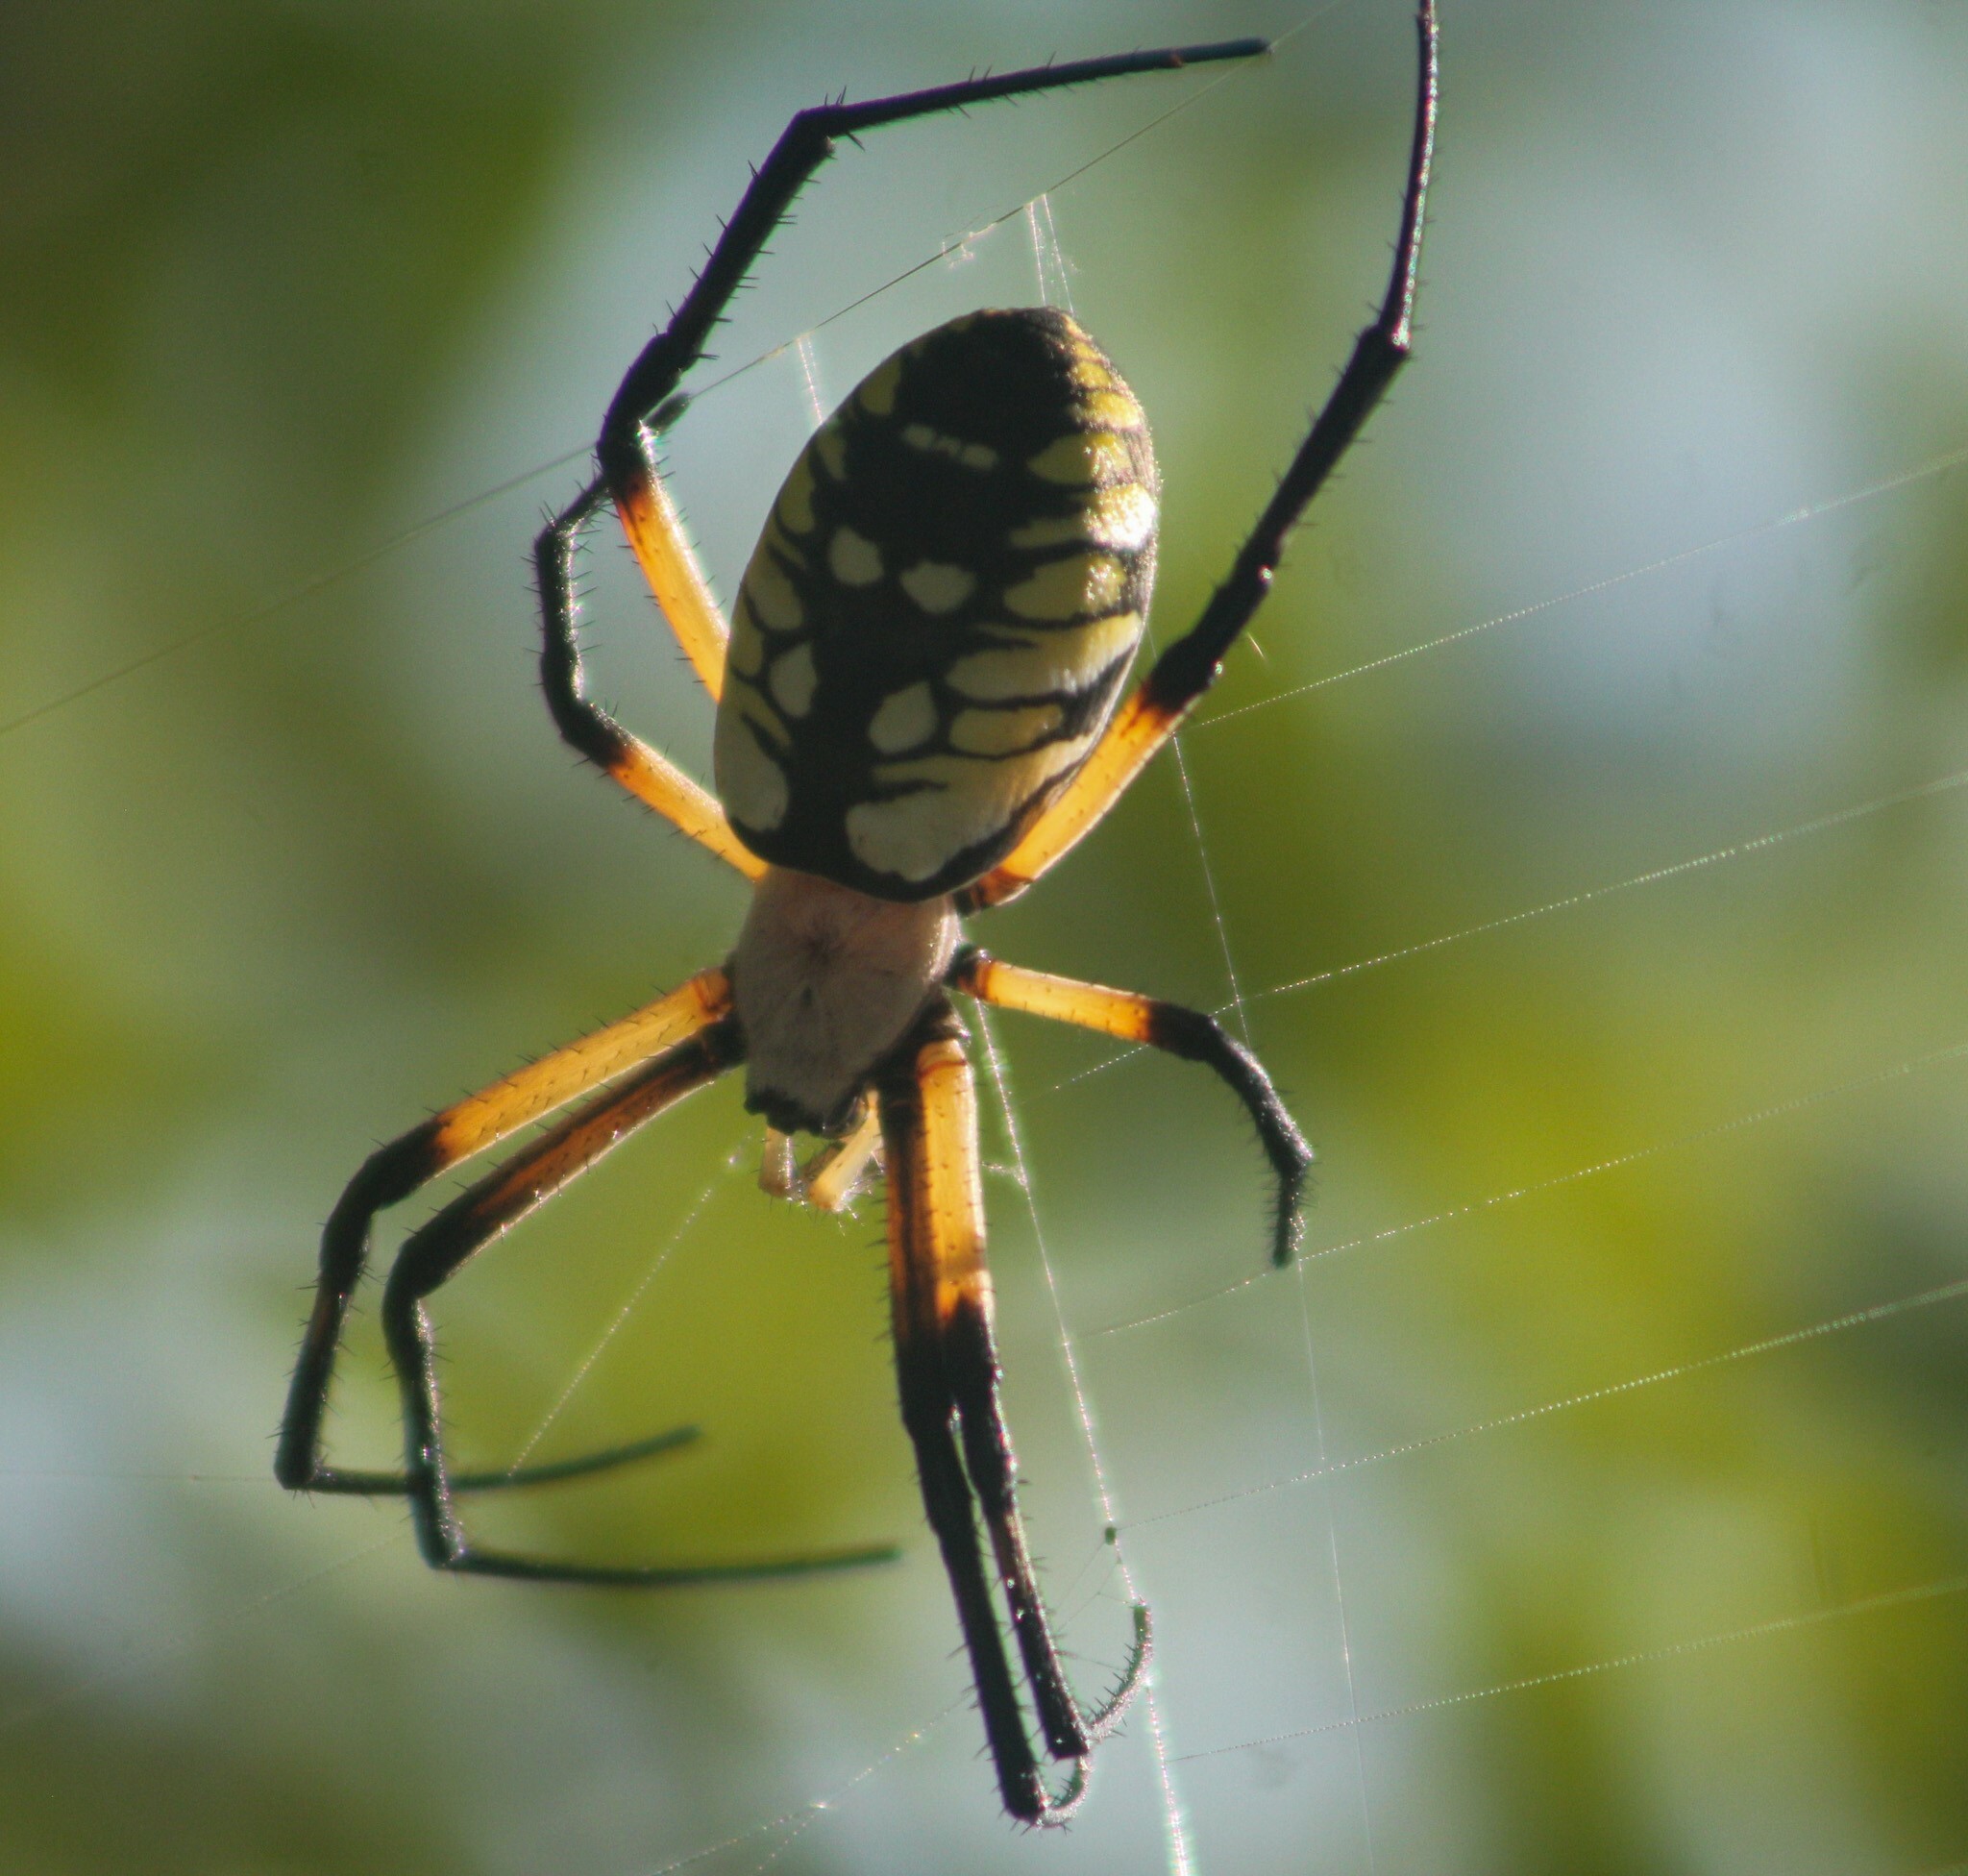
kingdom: Animalia
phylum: Arthropoda
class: Arachnida
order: Araneae
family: Araneidae
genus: Argiope
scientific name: Argiope aurantia
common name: Orb weavers
